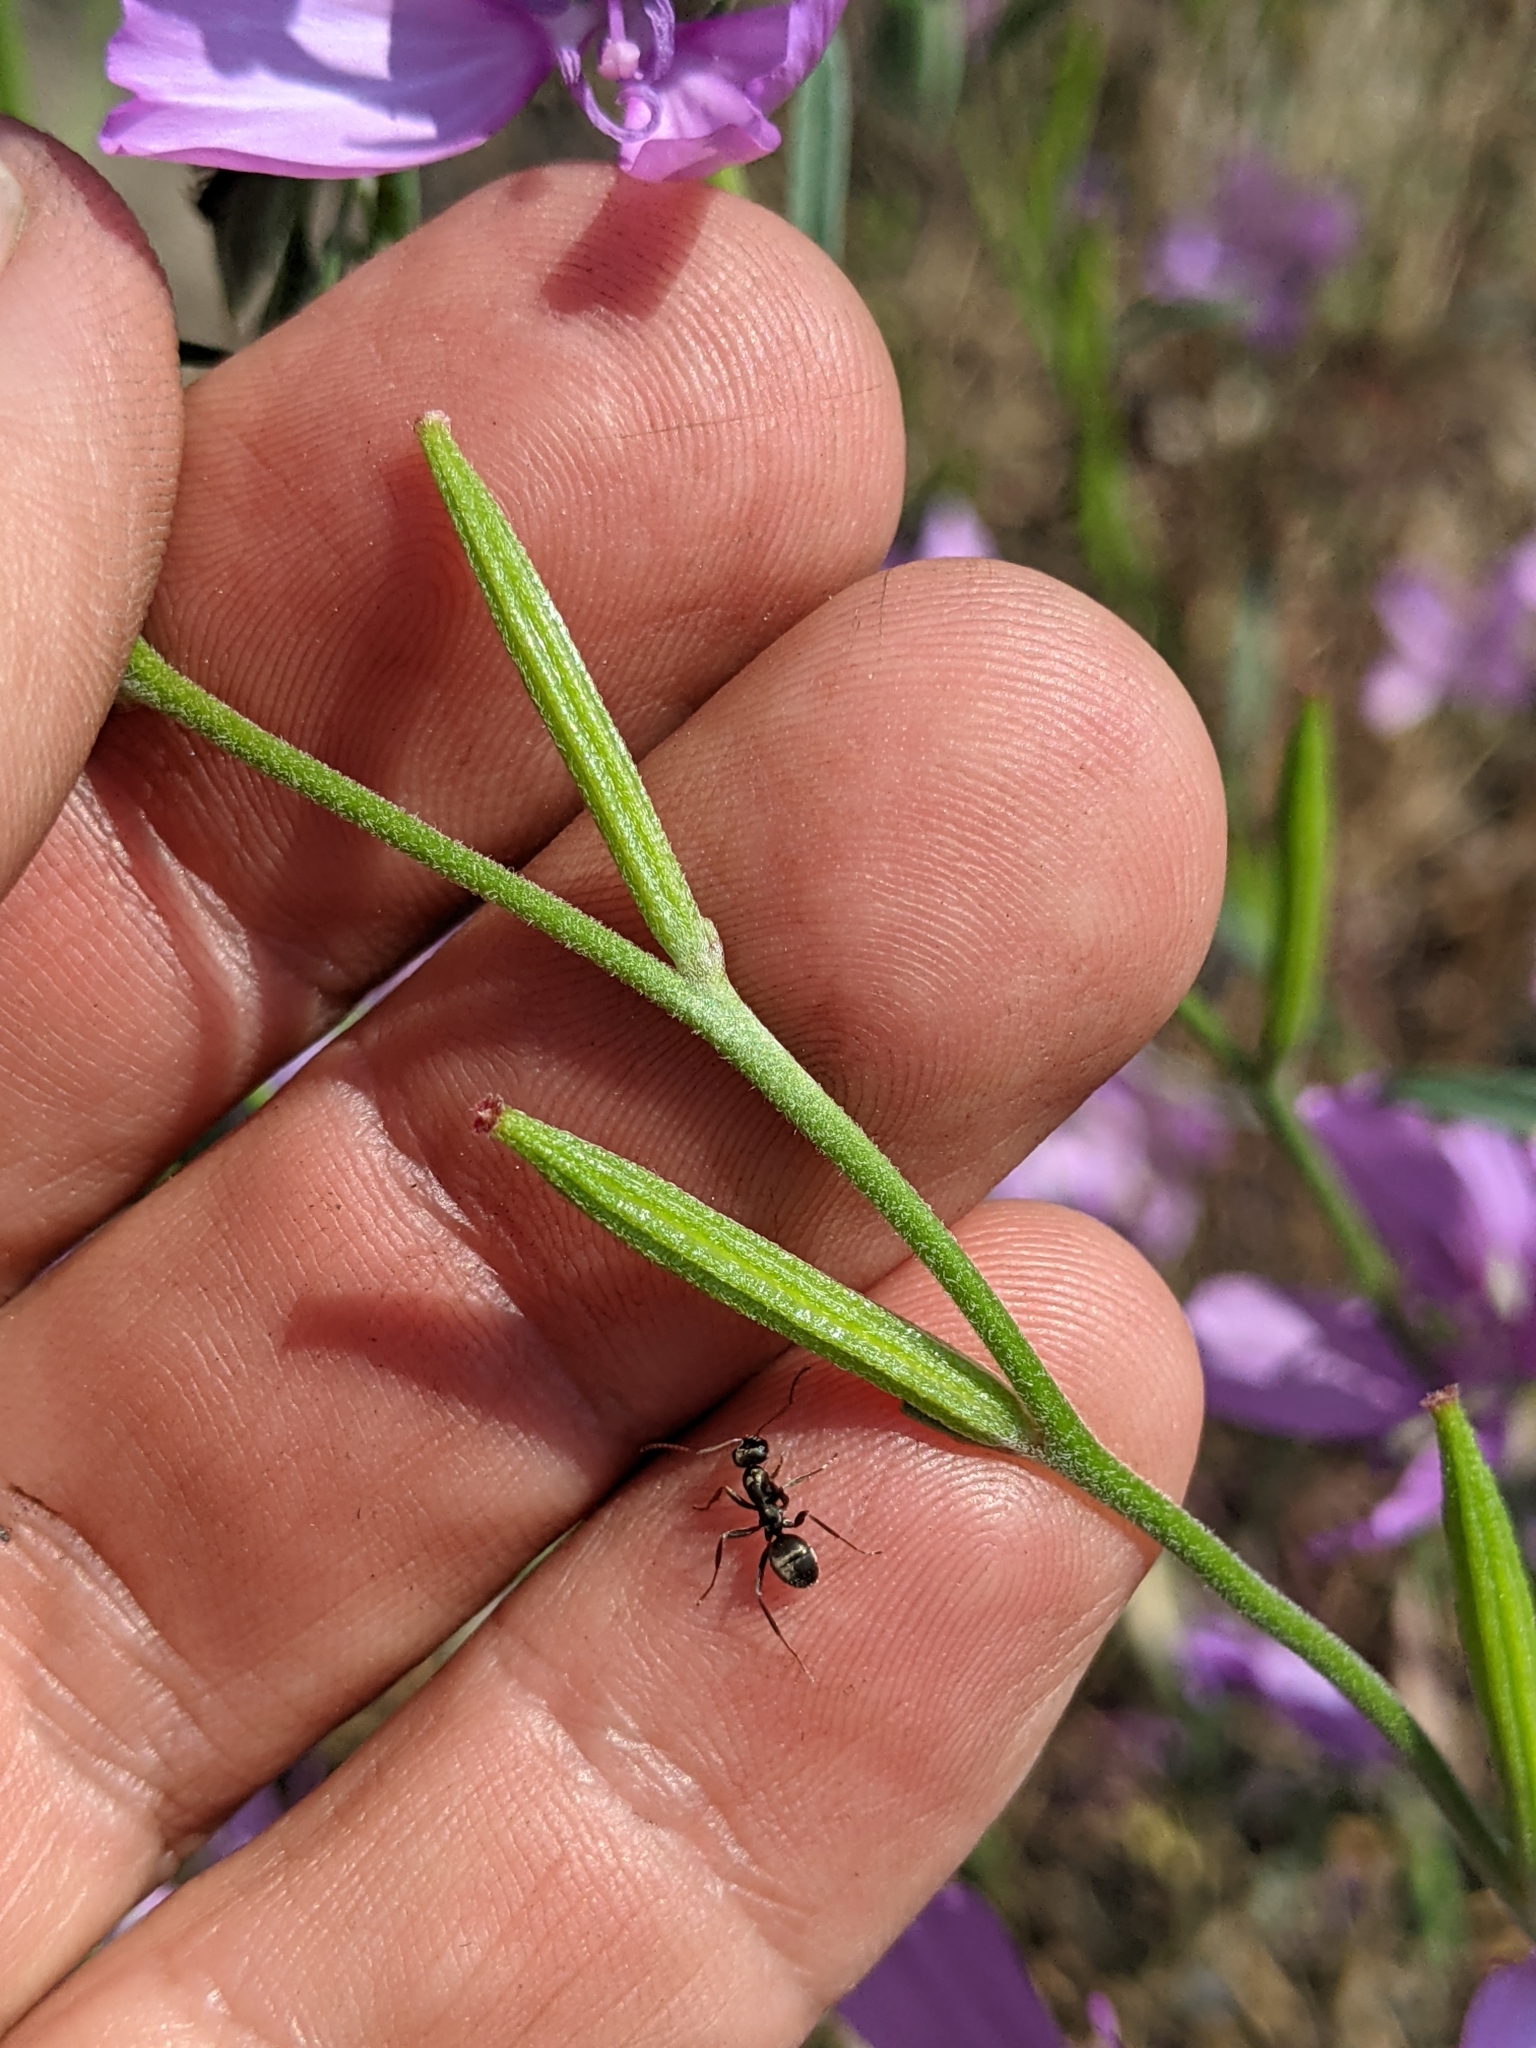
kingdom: Plantae
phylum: Tracheophyta
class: Magnoliopsida
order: Myrtales
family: Onagraceae
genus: Clarkia
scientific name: Clarkia dudleyana
